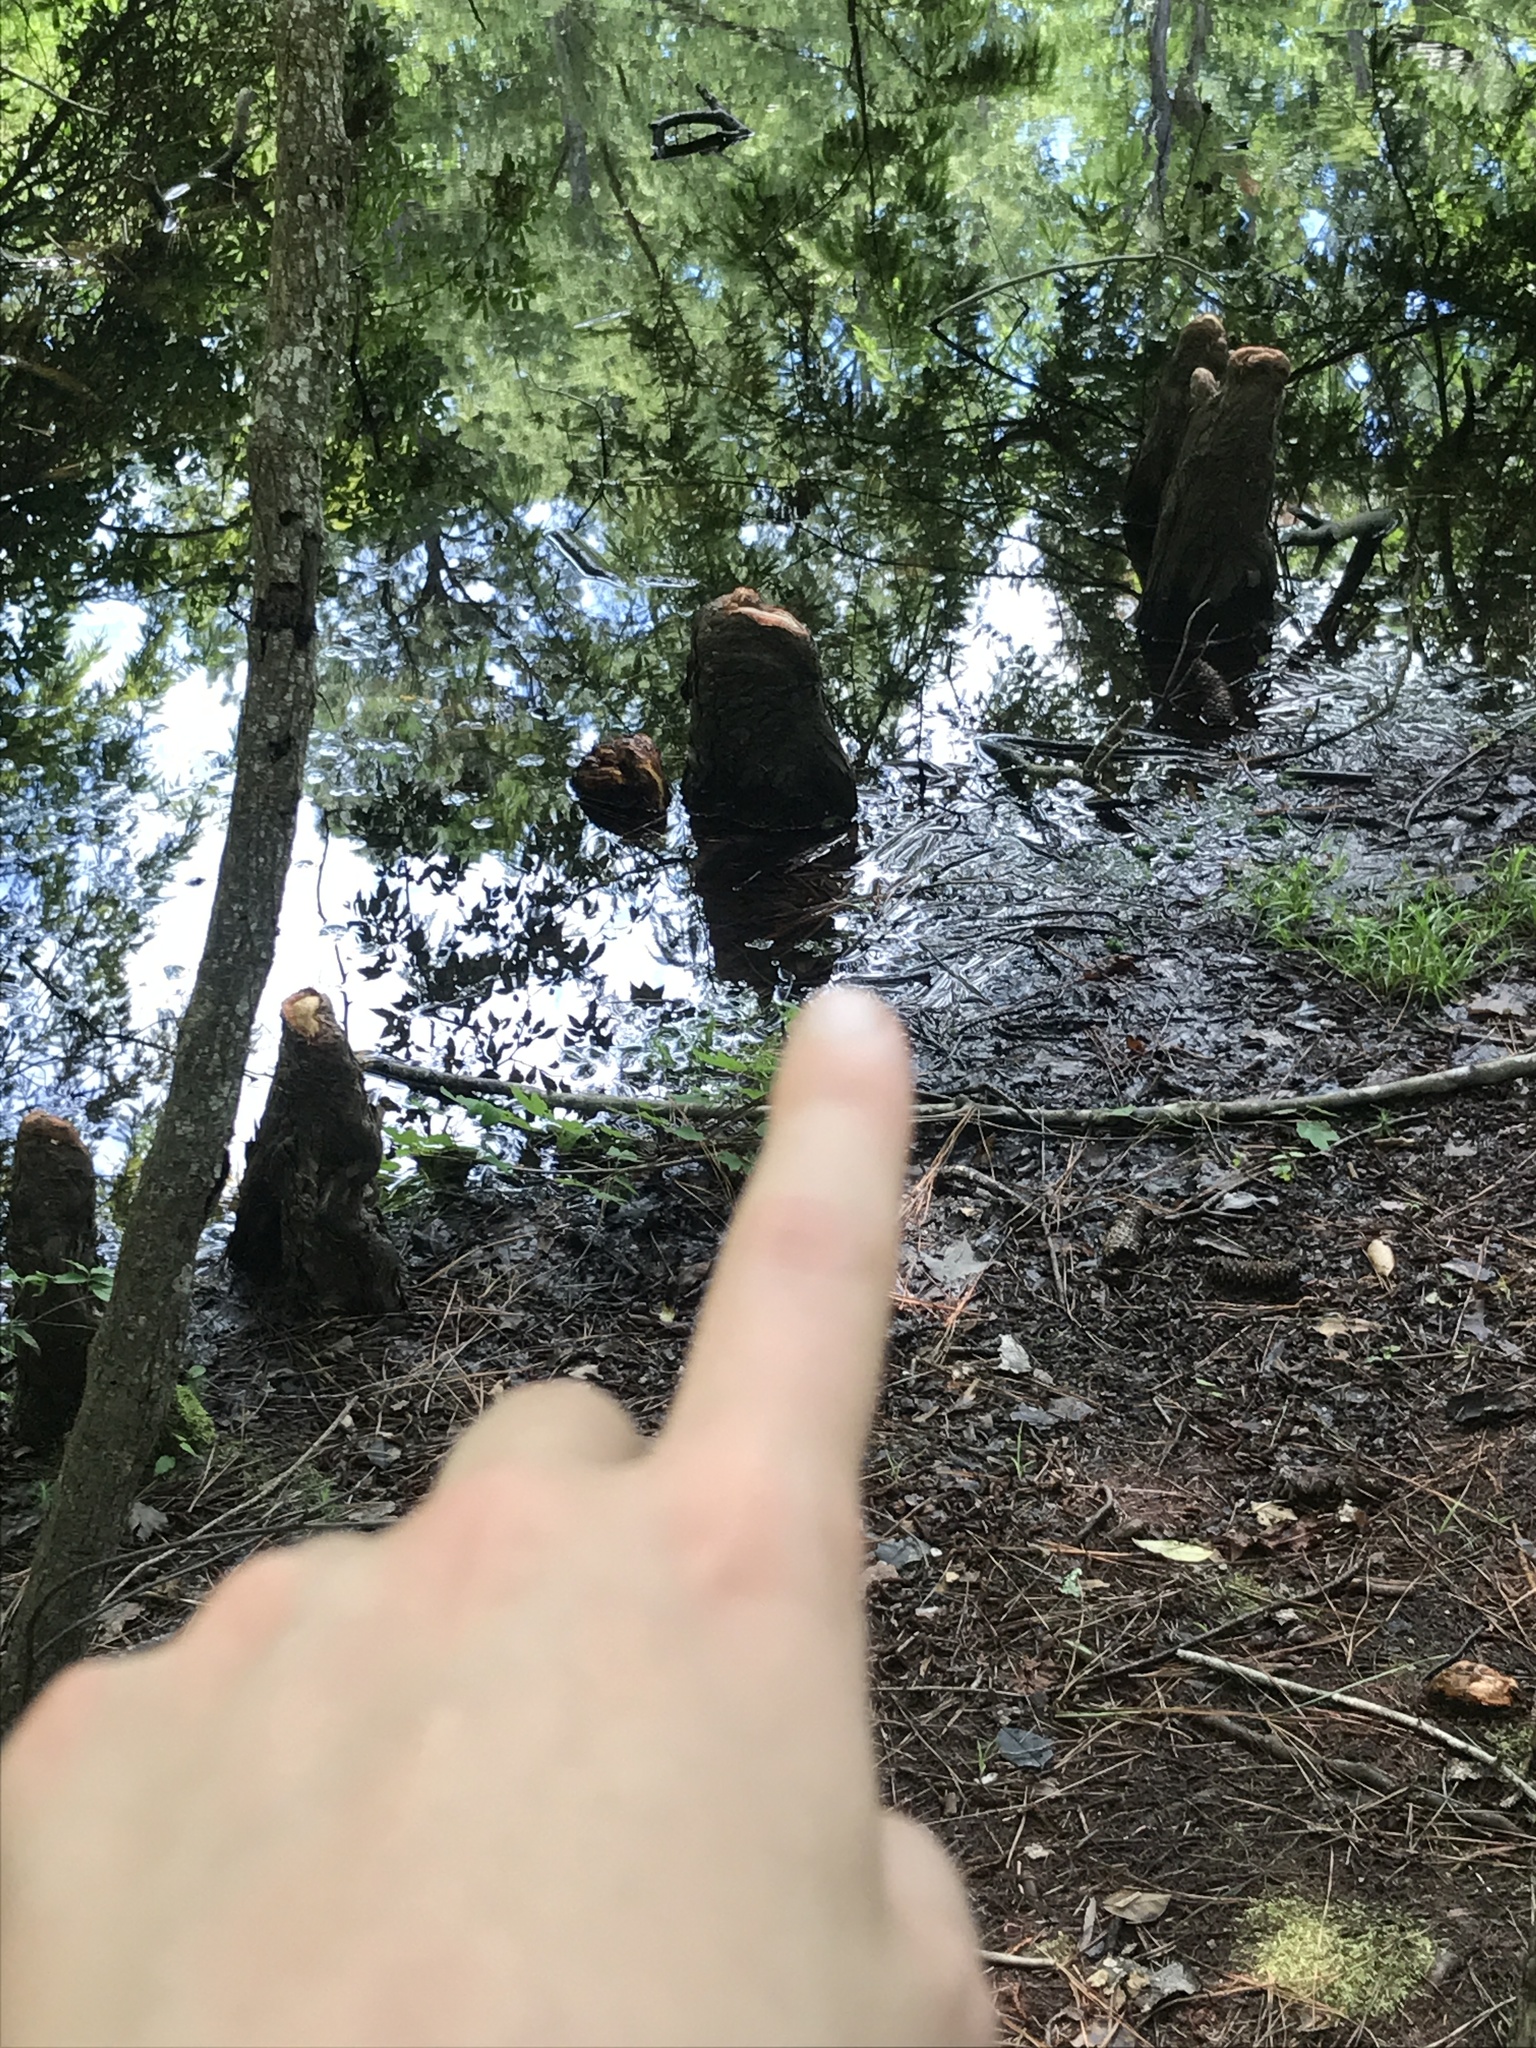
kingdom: Plantae
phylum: Tracheophyta
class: Pinopsida
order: Pinales
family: Cupressaceae
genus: Taxodium
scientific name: Taxodium distichum
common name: Bald cypress
